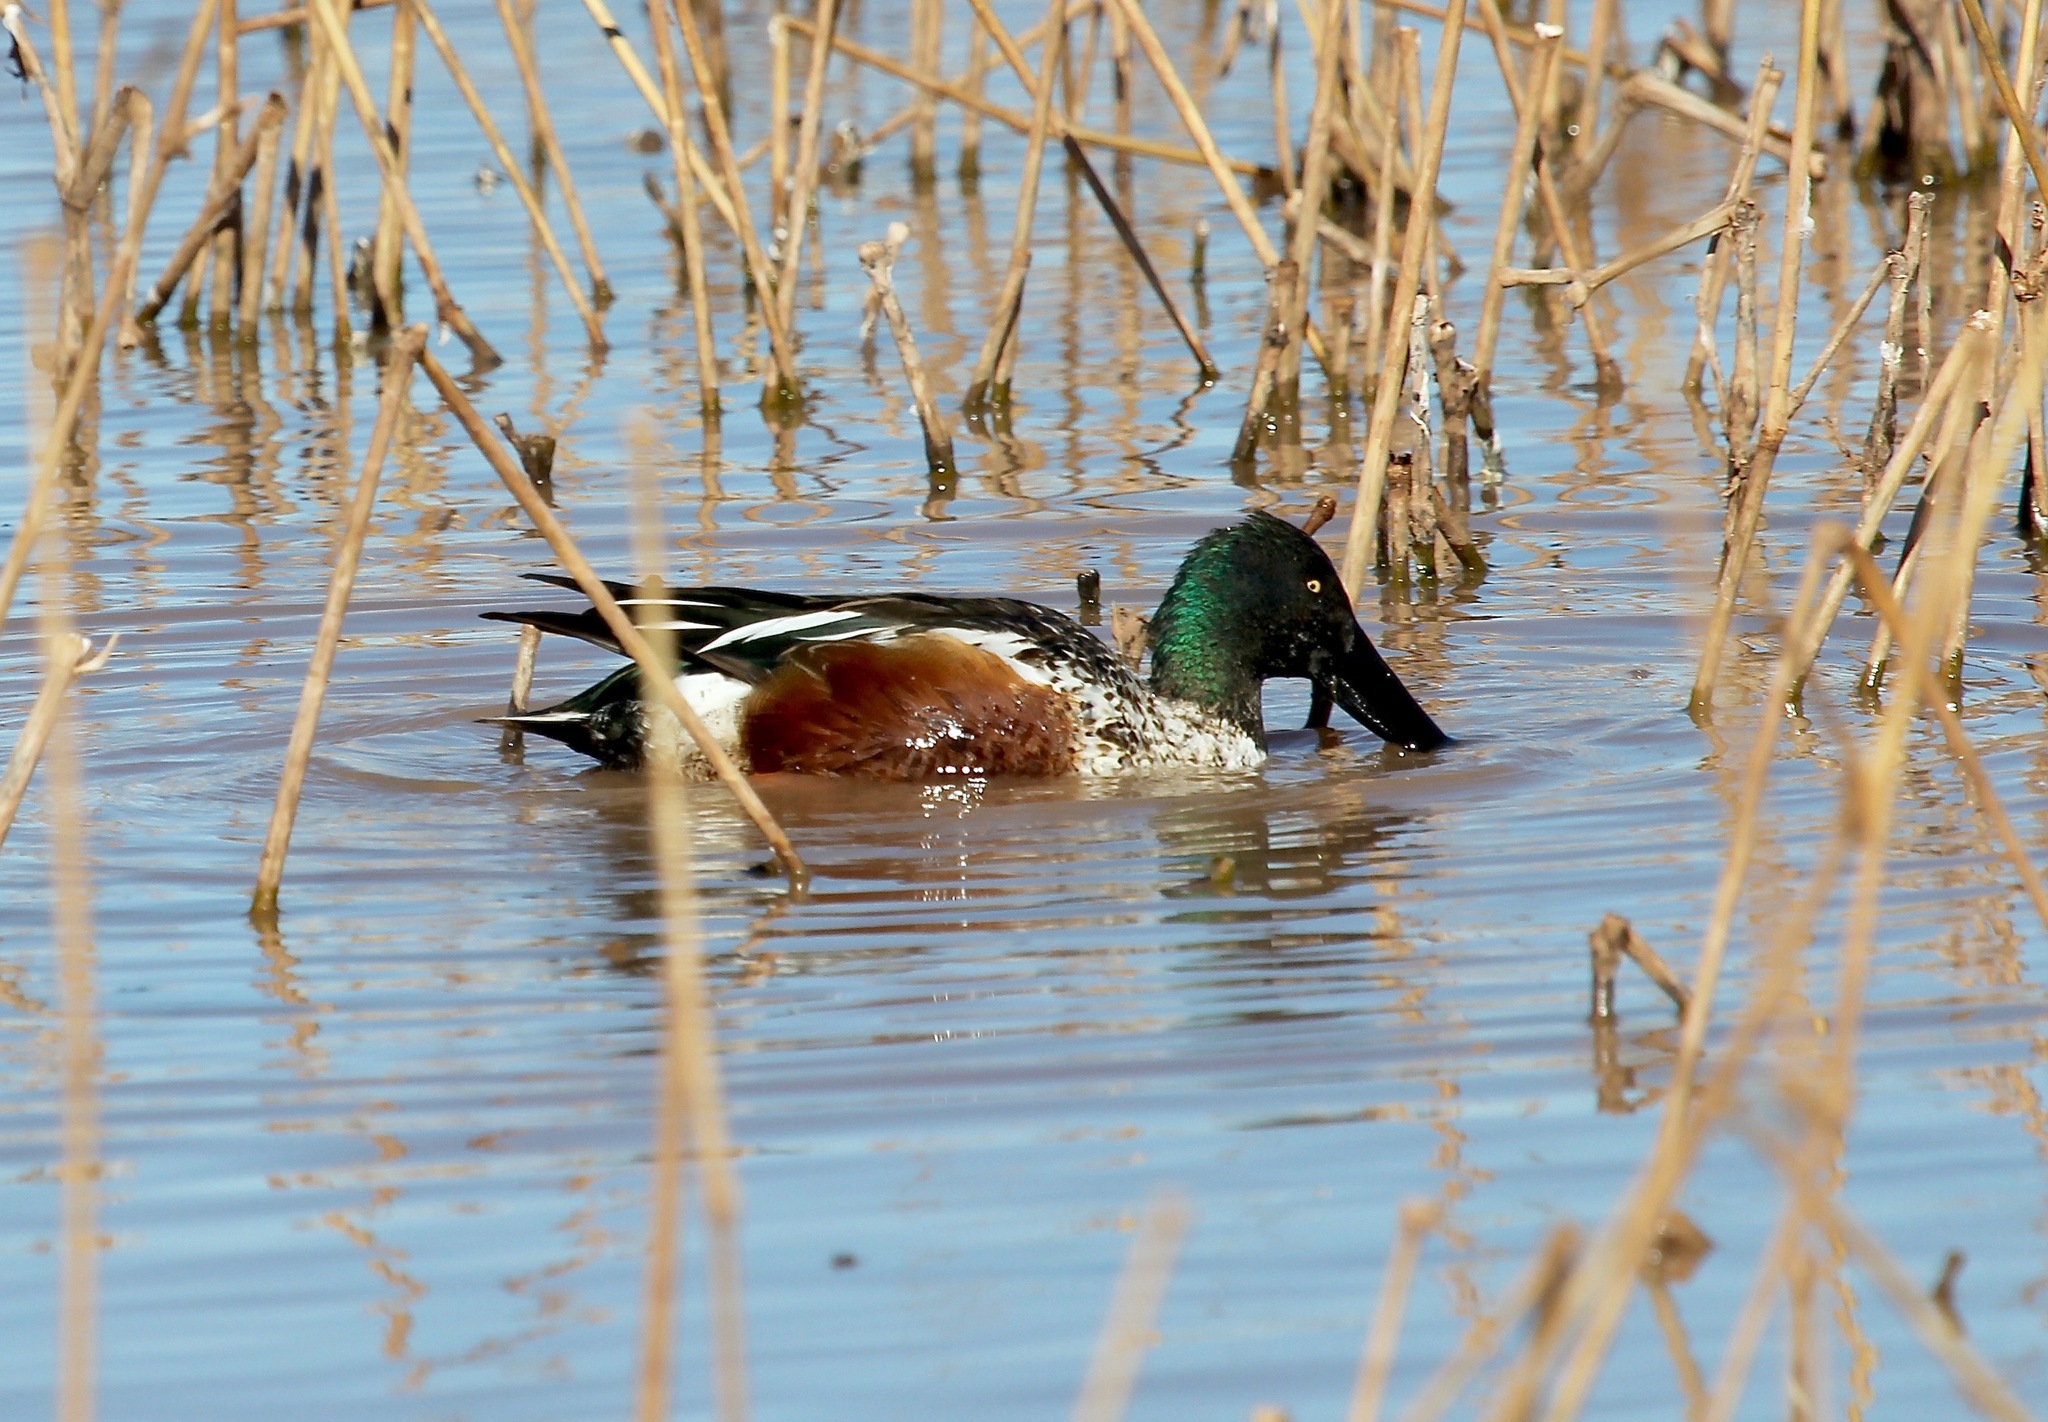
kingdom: Animalia
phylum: Chordata
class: Aves
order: Anseriformes
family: Anatidae
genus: Spatula
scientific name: Spatula clypeata
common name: Northern shoveler
